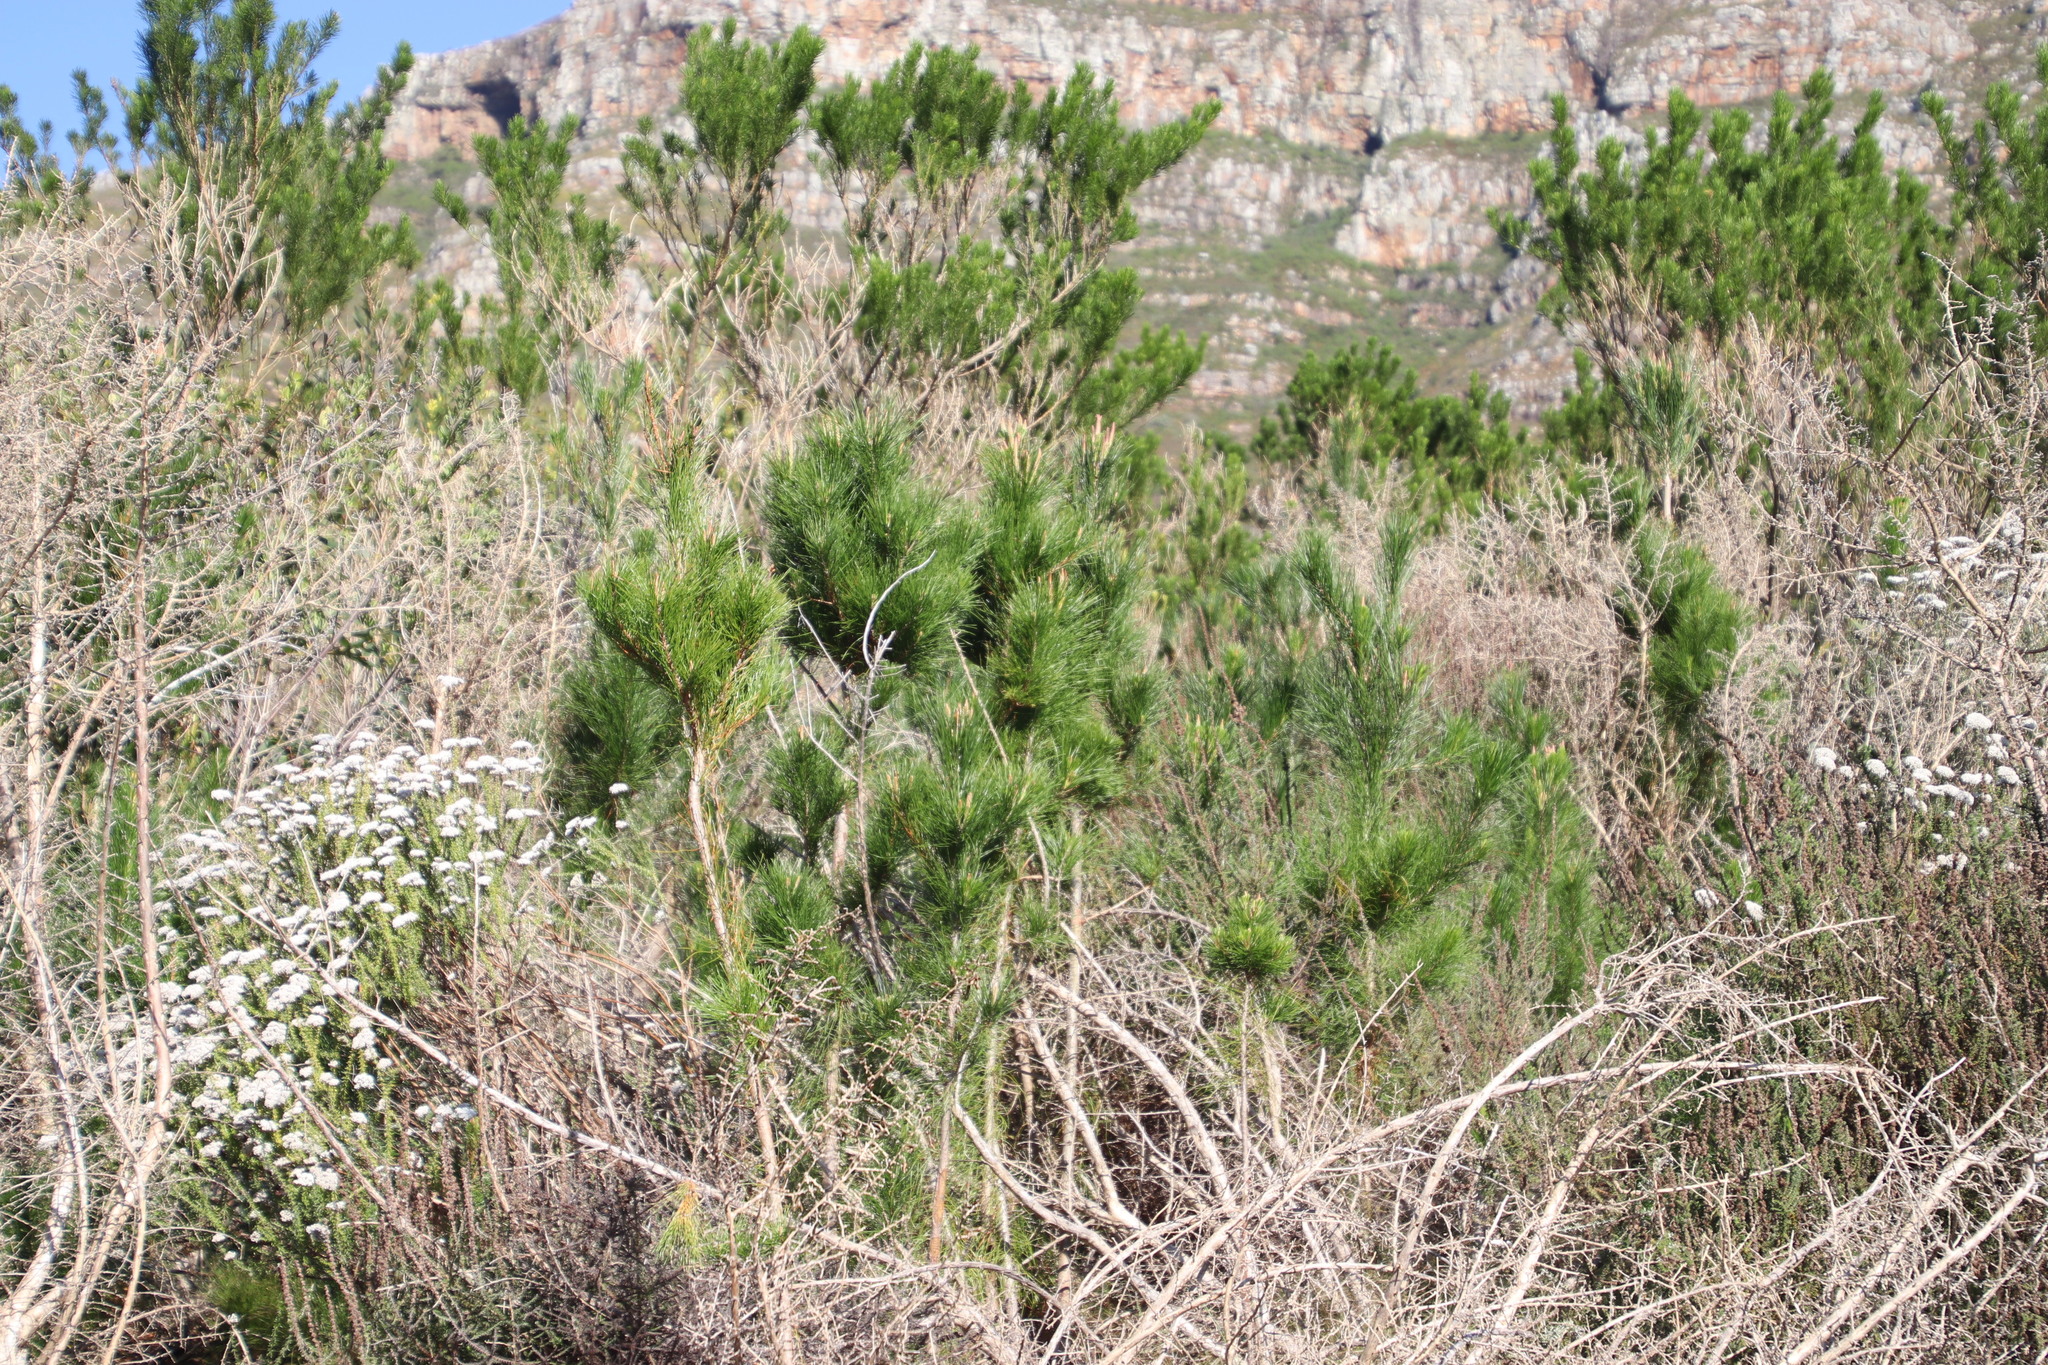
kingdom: Plantae
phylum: Tracheophyta
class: Pinopsida
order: Pinales
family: Pinaceae
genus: Pinus
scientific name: Pinus radiata
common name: Monterey pine
